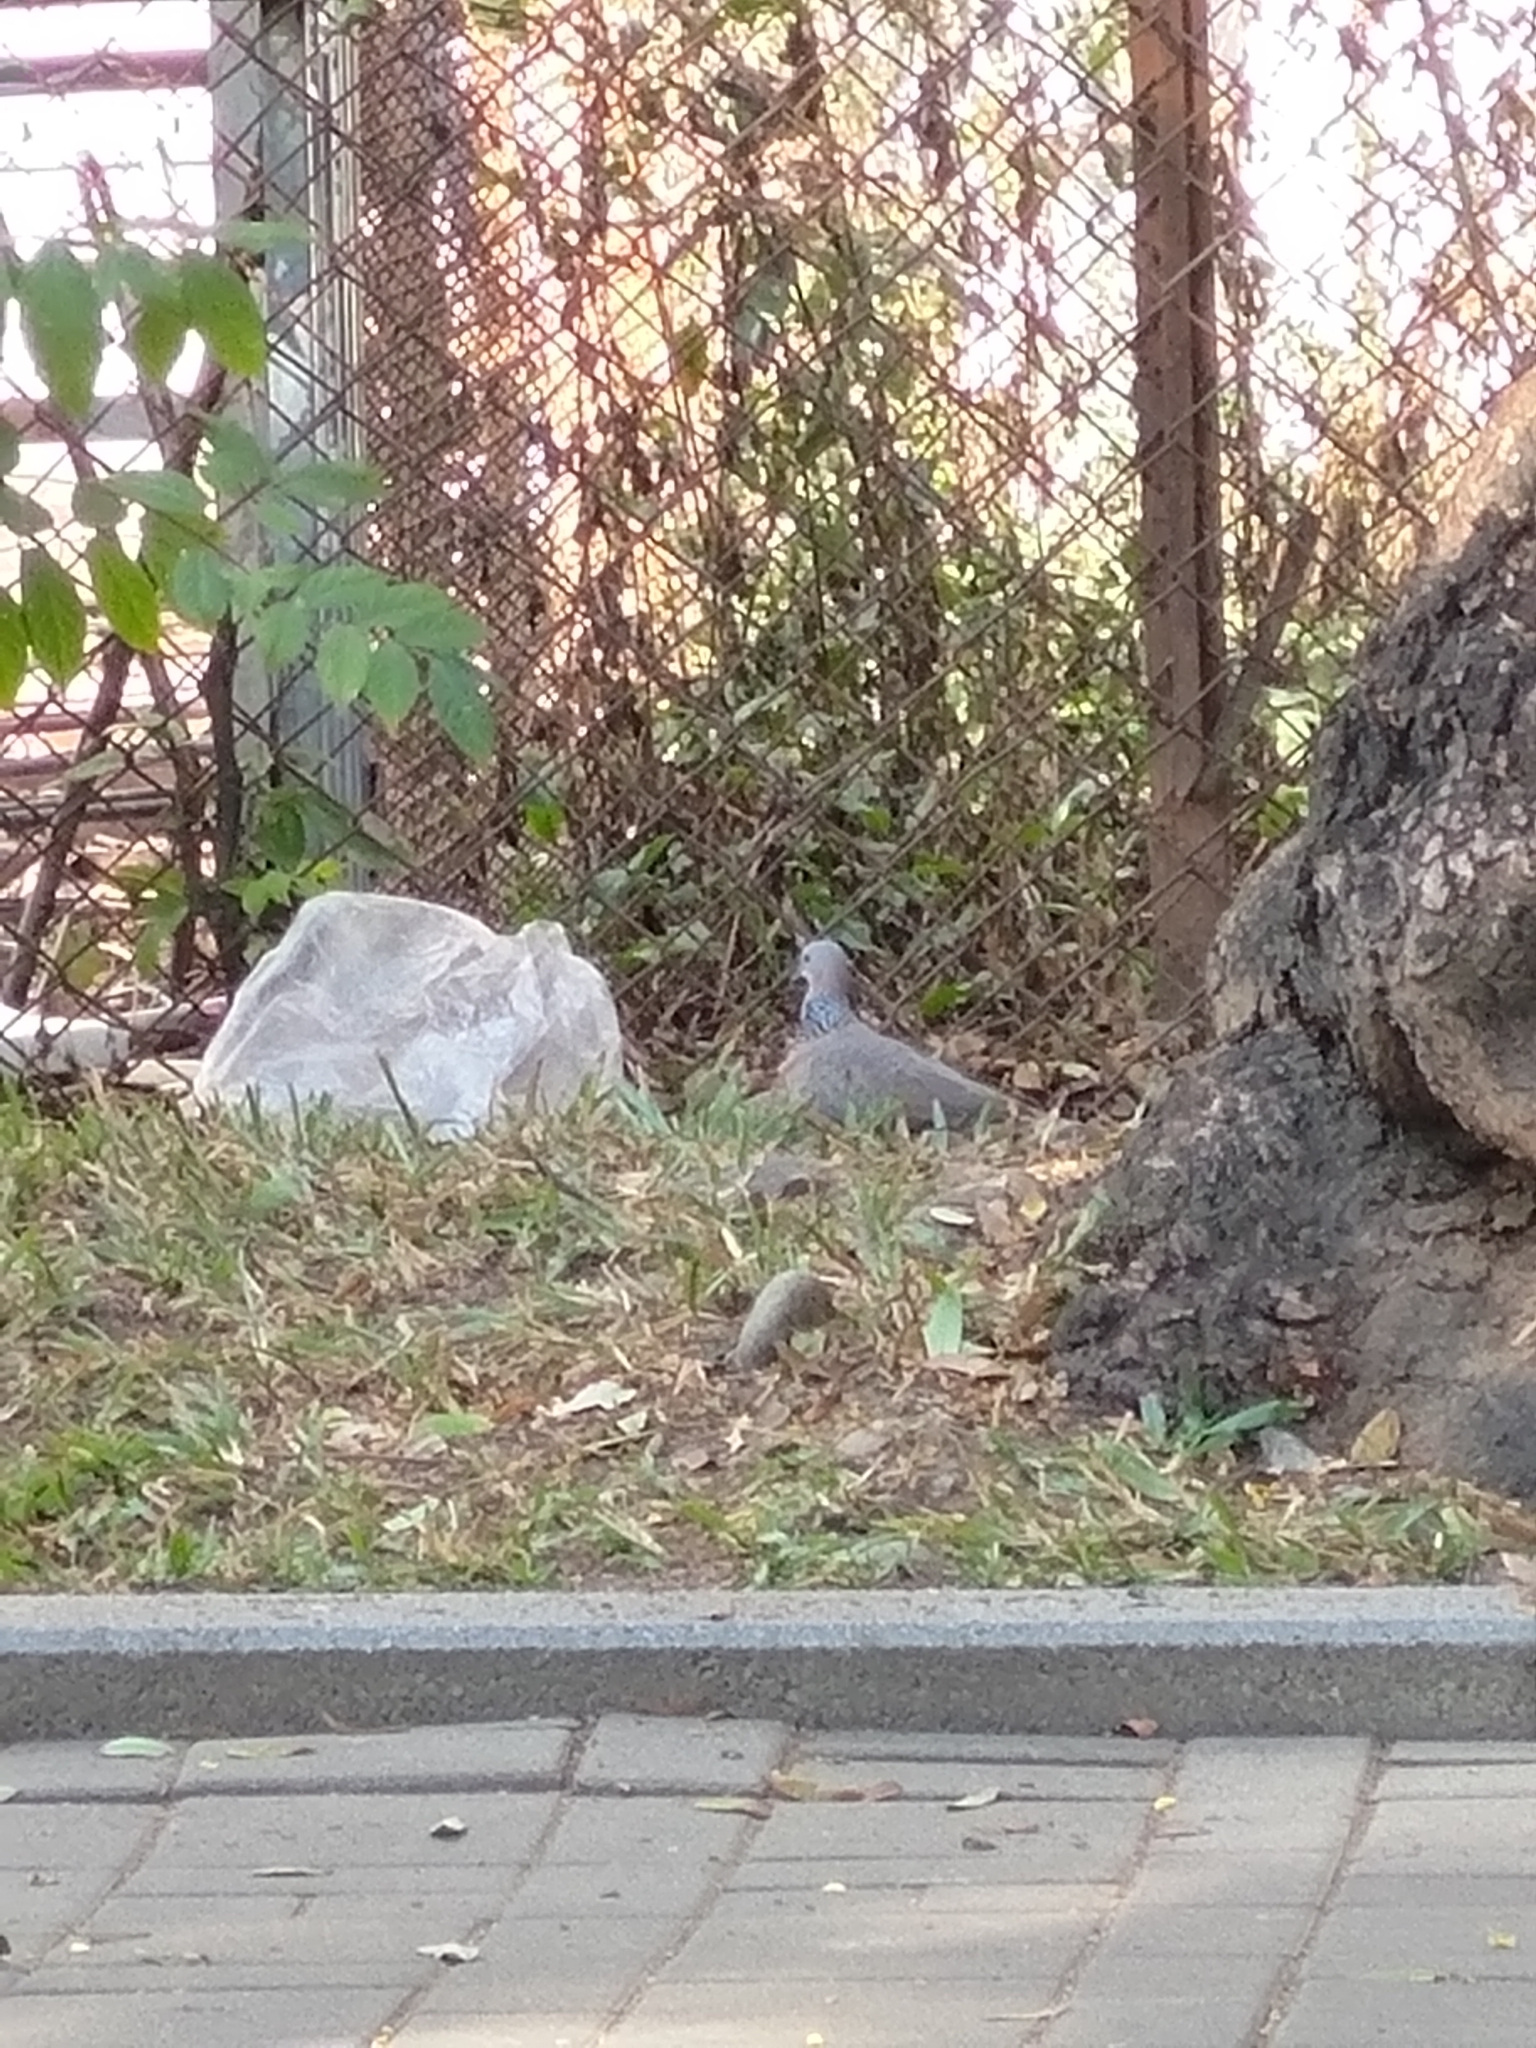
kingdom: Animalia
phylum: Chordata
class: Aves
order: Columbiformes
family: Columbidae
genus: Spilopelia
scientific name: Spilopelia chinensis
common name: Spotted dove
